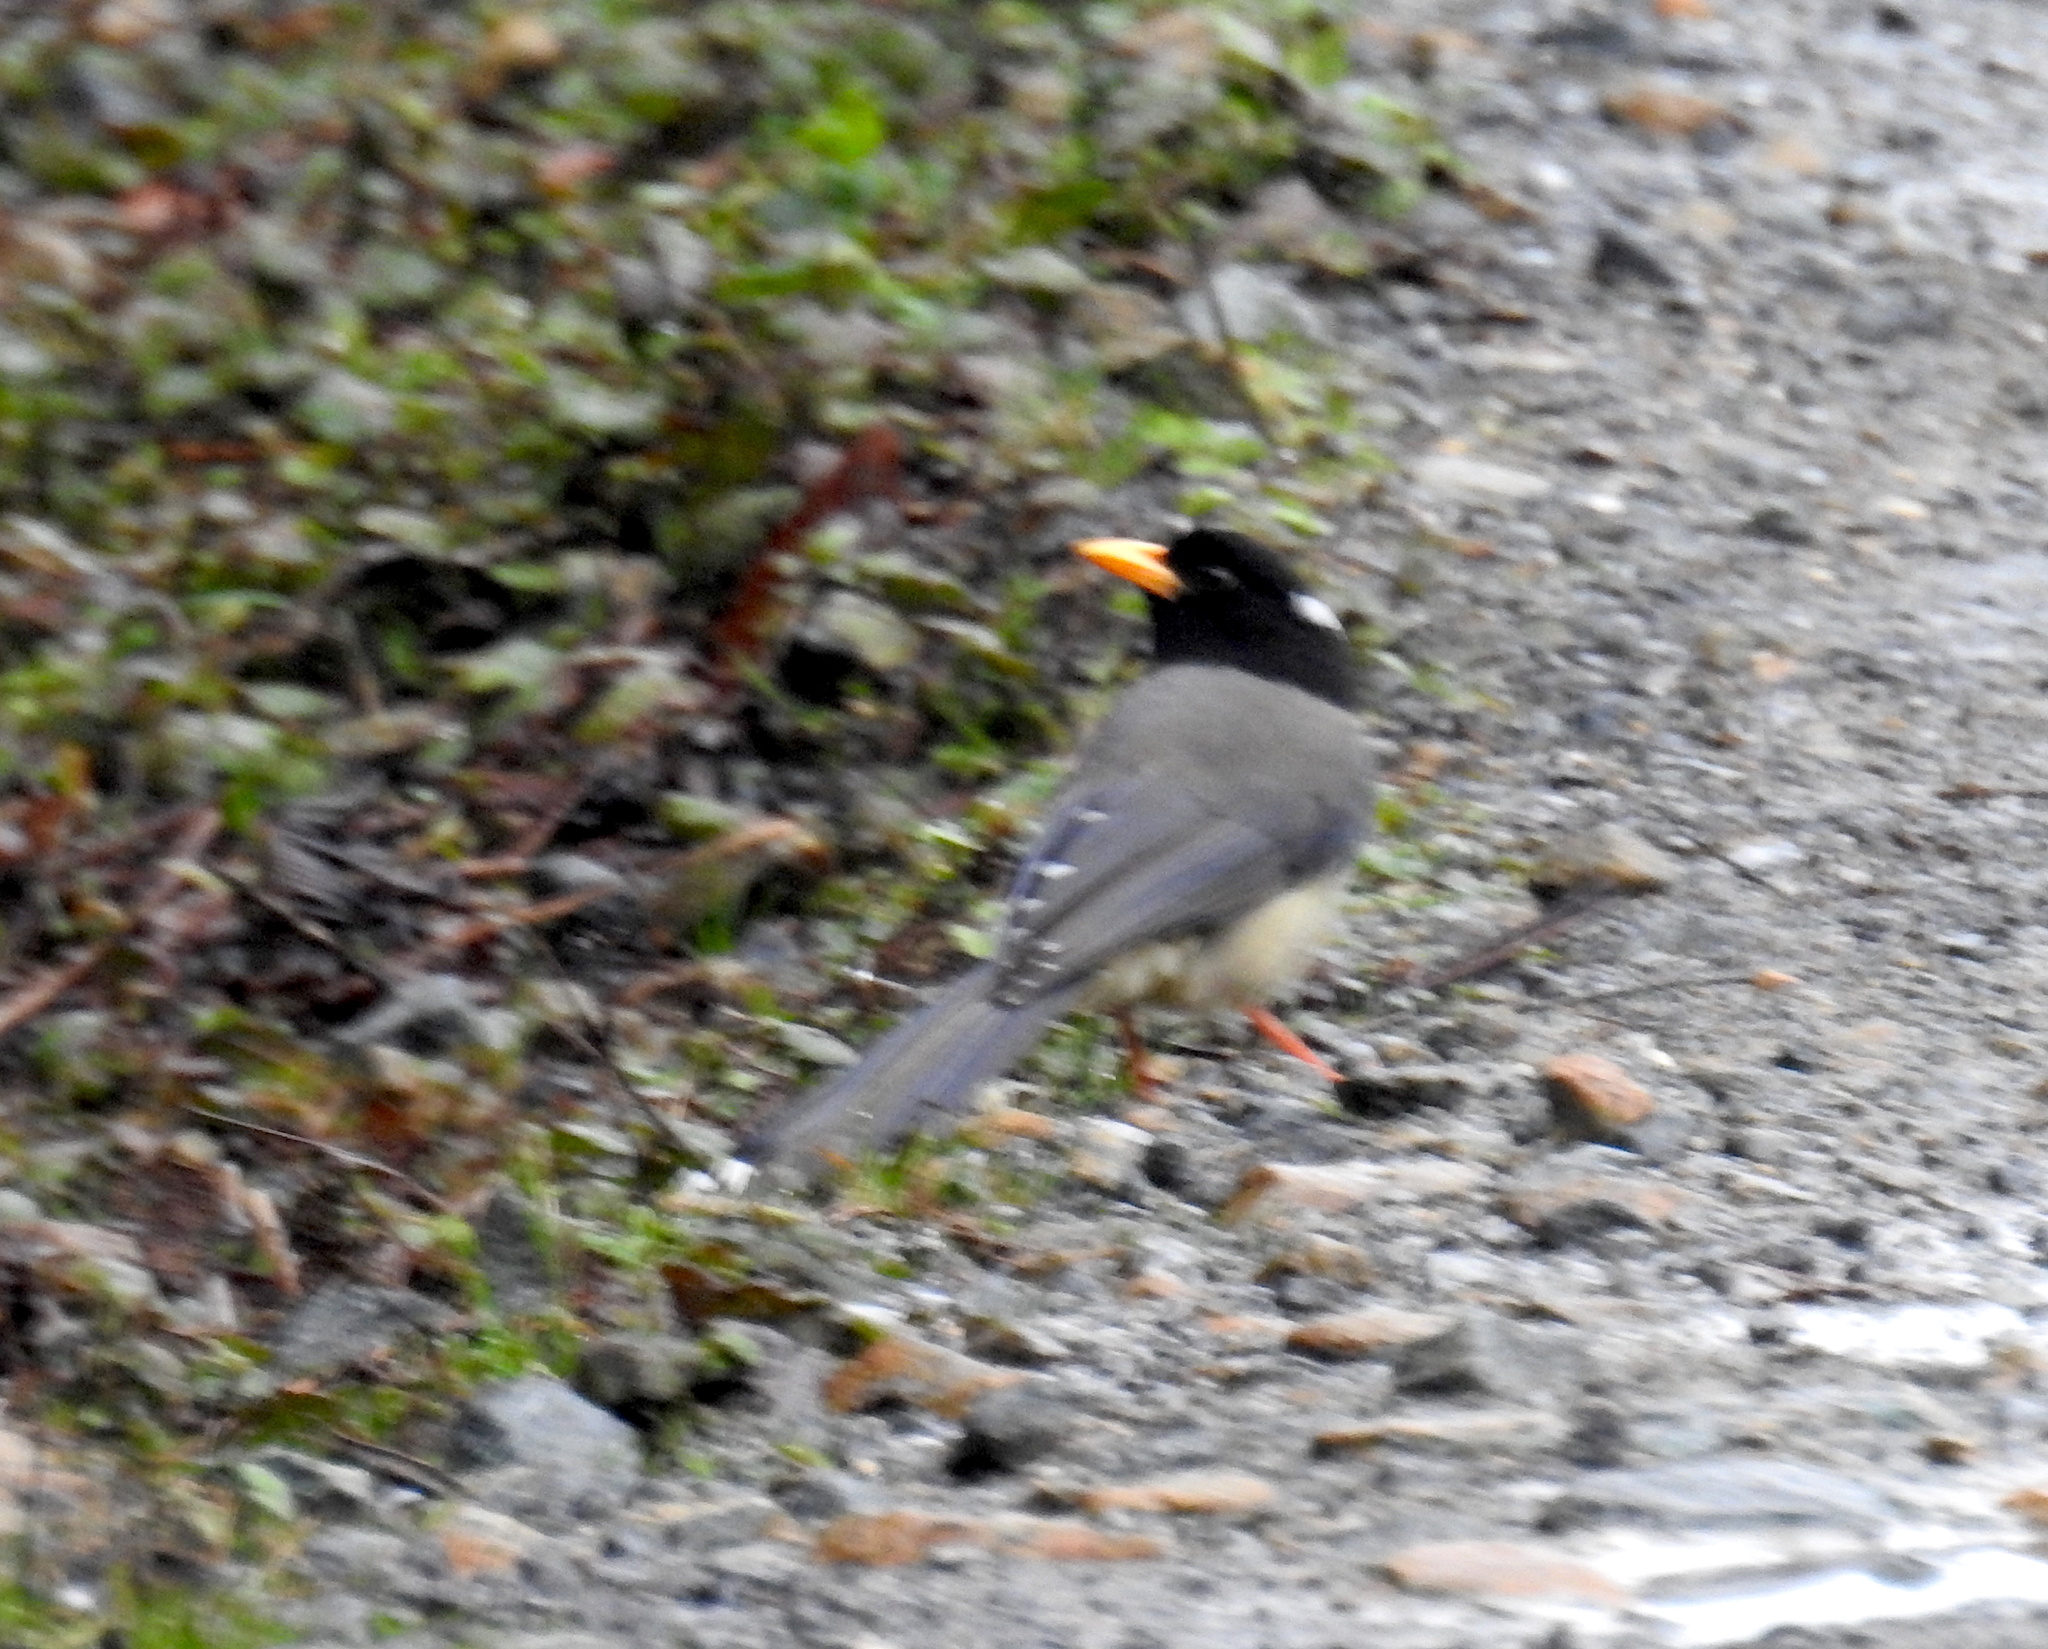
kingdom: Animalia
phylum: Chordata
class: Aves
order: Passeriformes
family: Corvidae
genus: Urocissa
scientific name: Urocissa flavirostris
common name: Yellow-billed blue magpie
